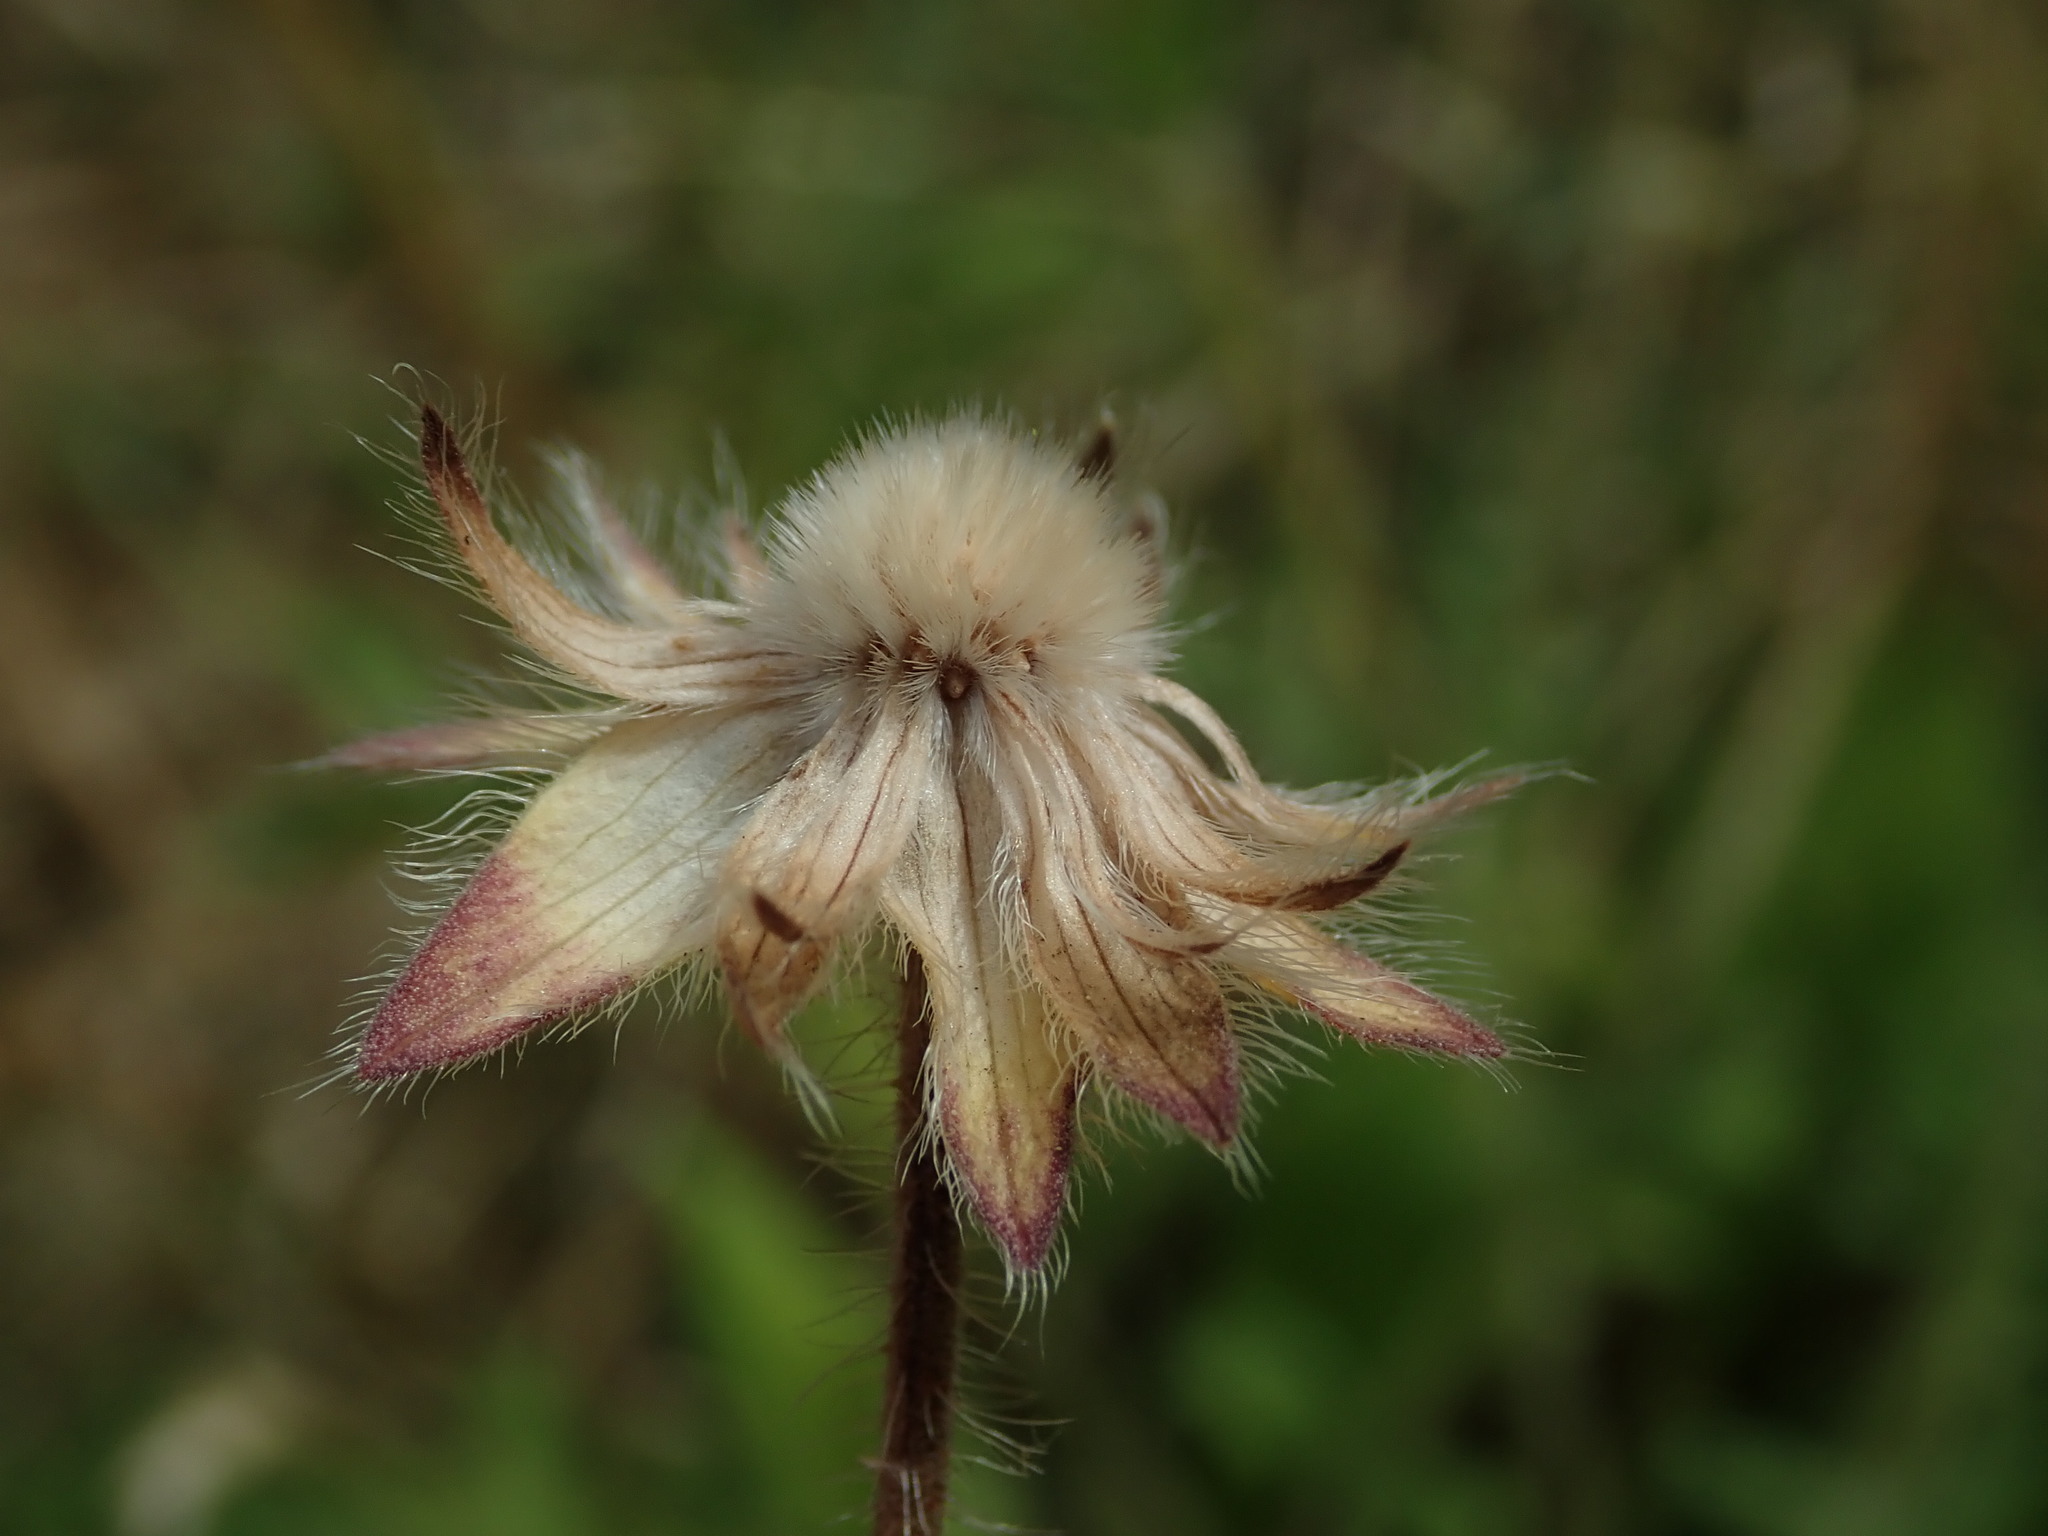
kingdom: Plantae
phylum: Tracheophyta
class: Magnoliopsida
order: Dipsacales
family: Caprifoliaceae
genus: Knautia
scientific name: Knautia arvensis
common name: Field scabiosa
